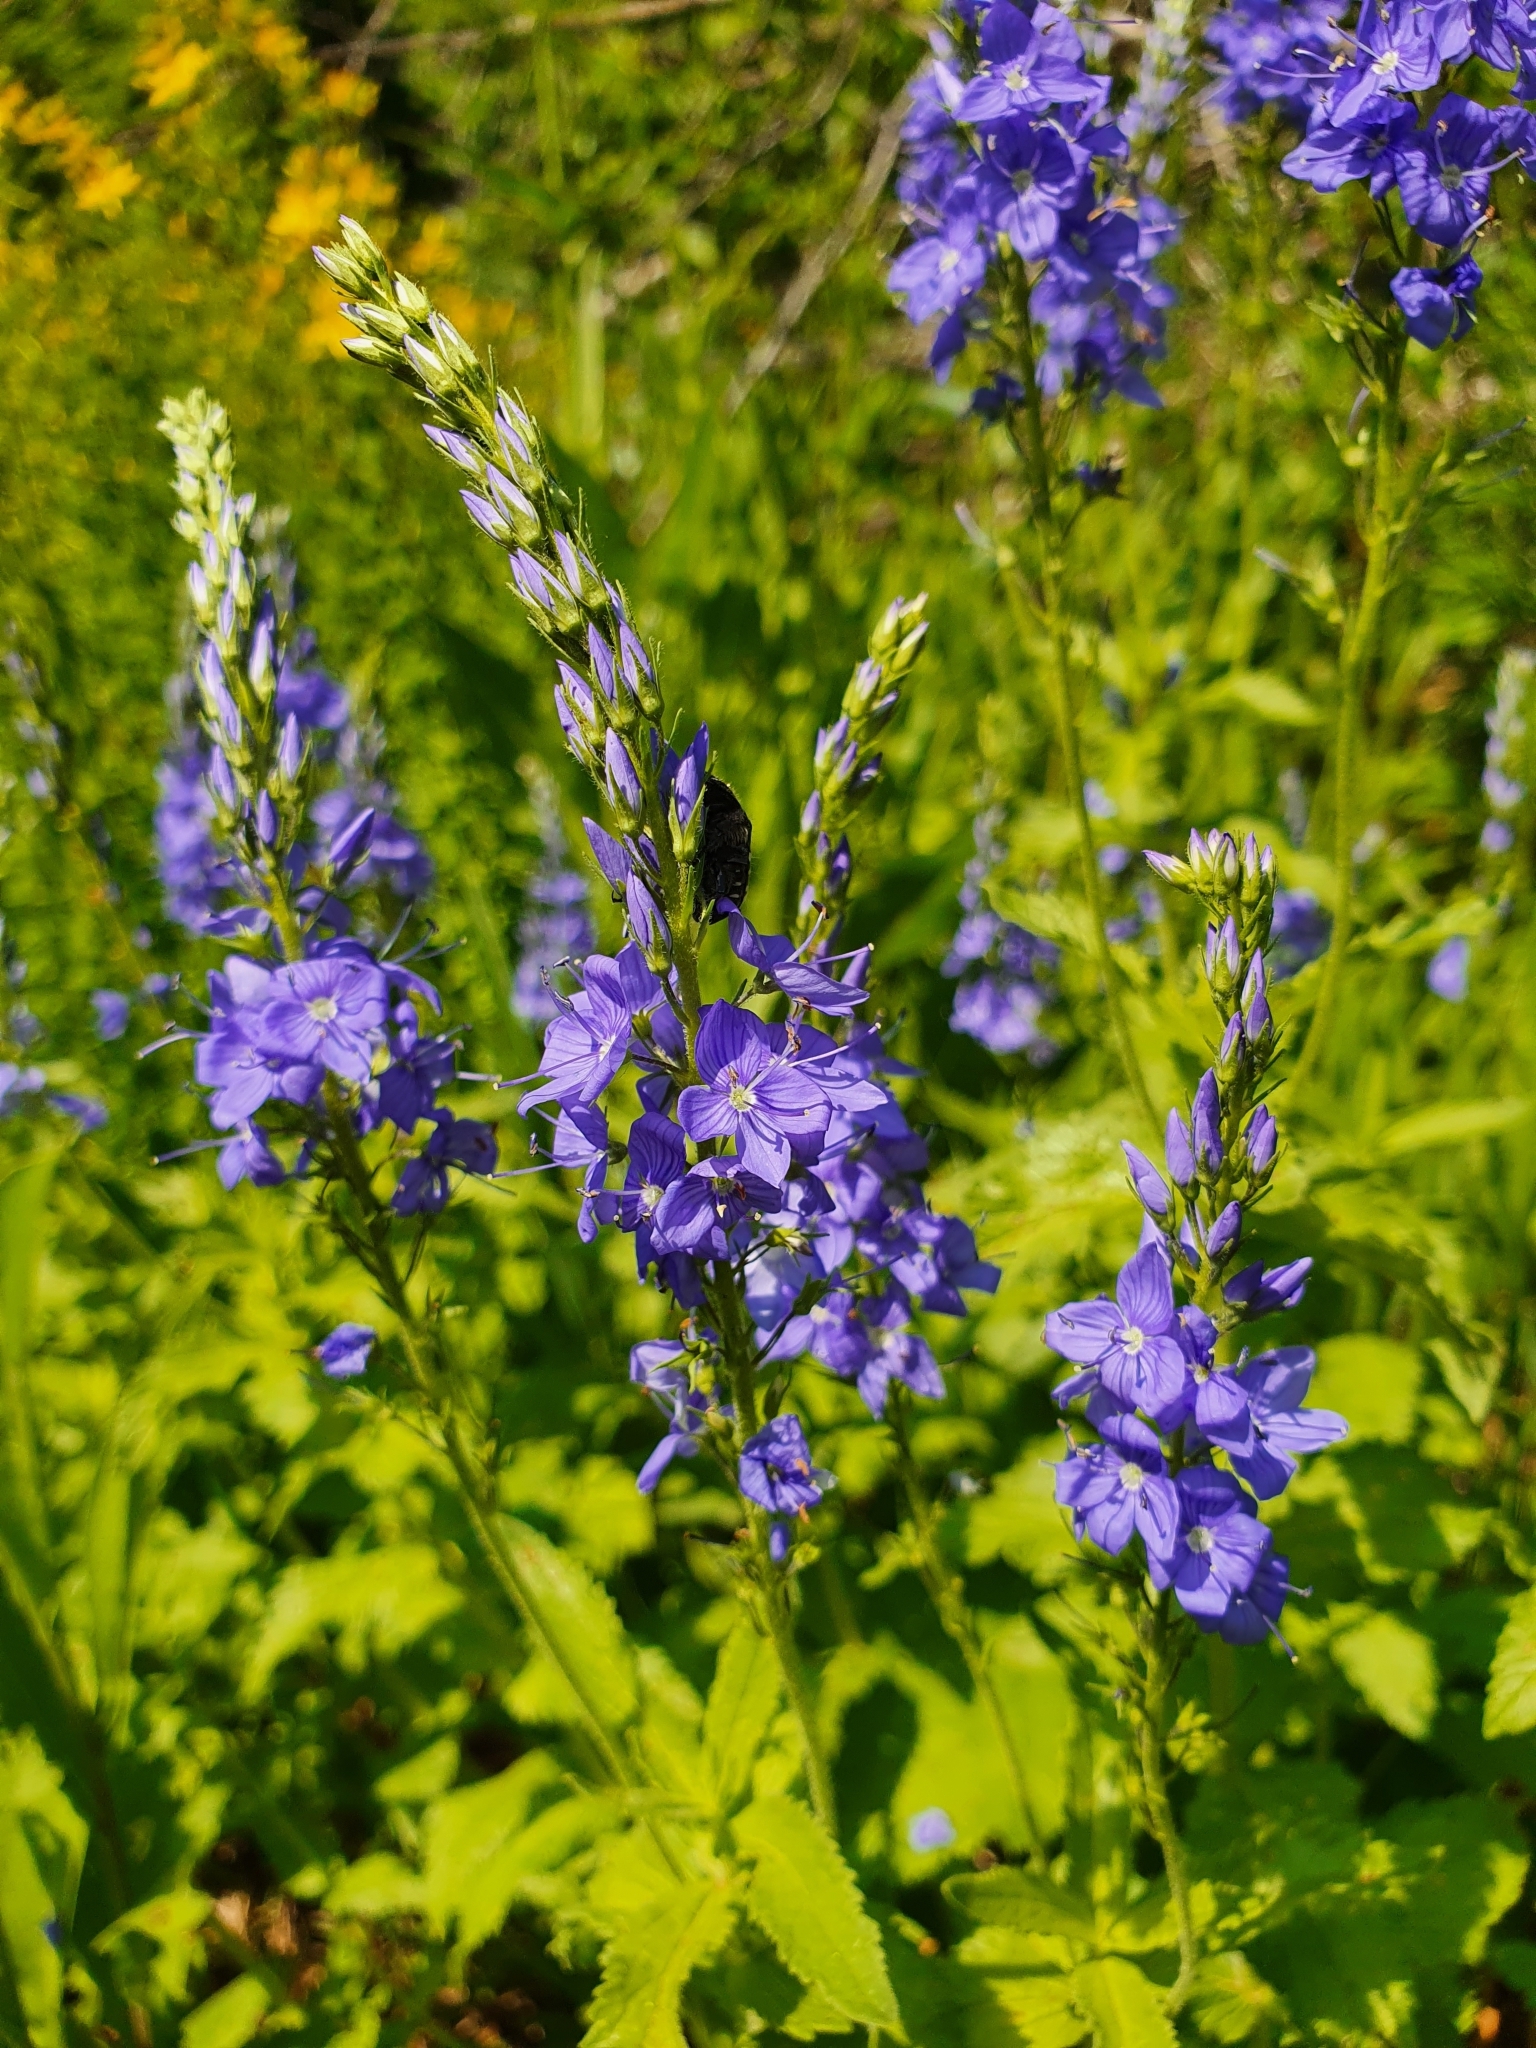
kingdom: Plantae
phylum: Tracheophyta
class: Magnoliopsida
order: Lamiales
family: Plantaginaceae
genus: Veronica
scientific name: Veronica teucrium
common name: Large speedwell
